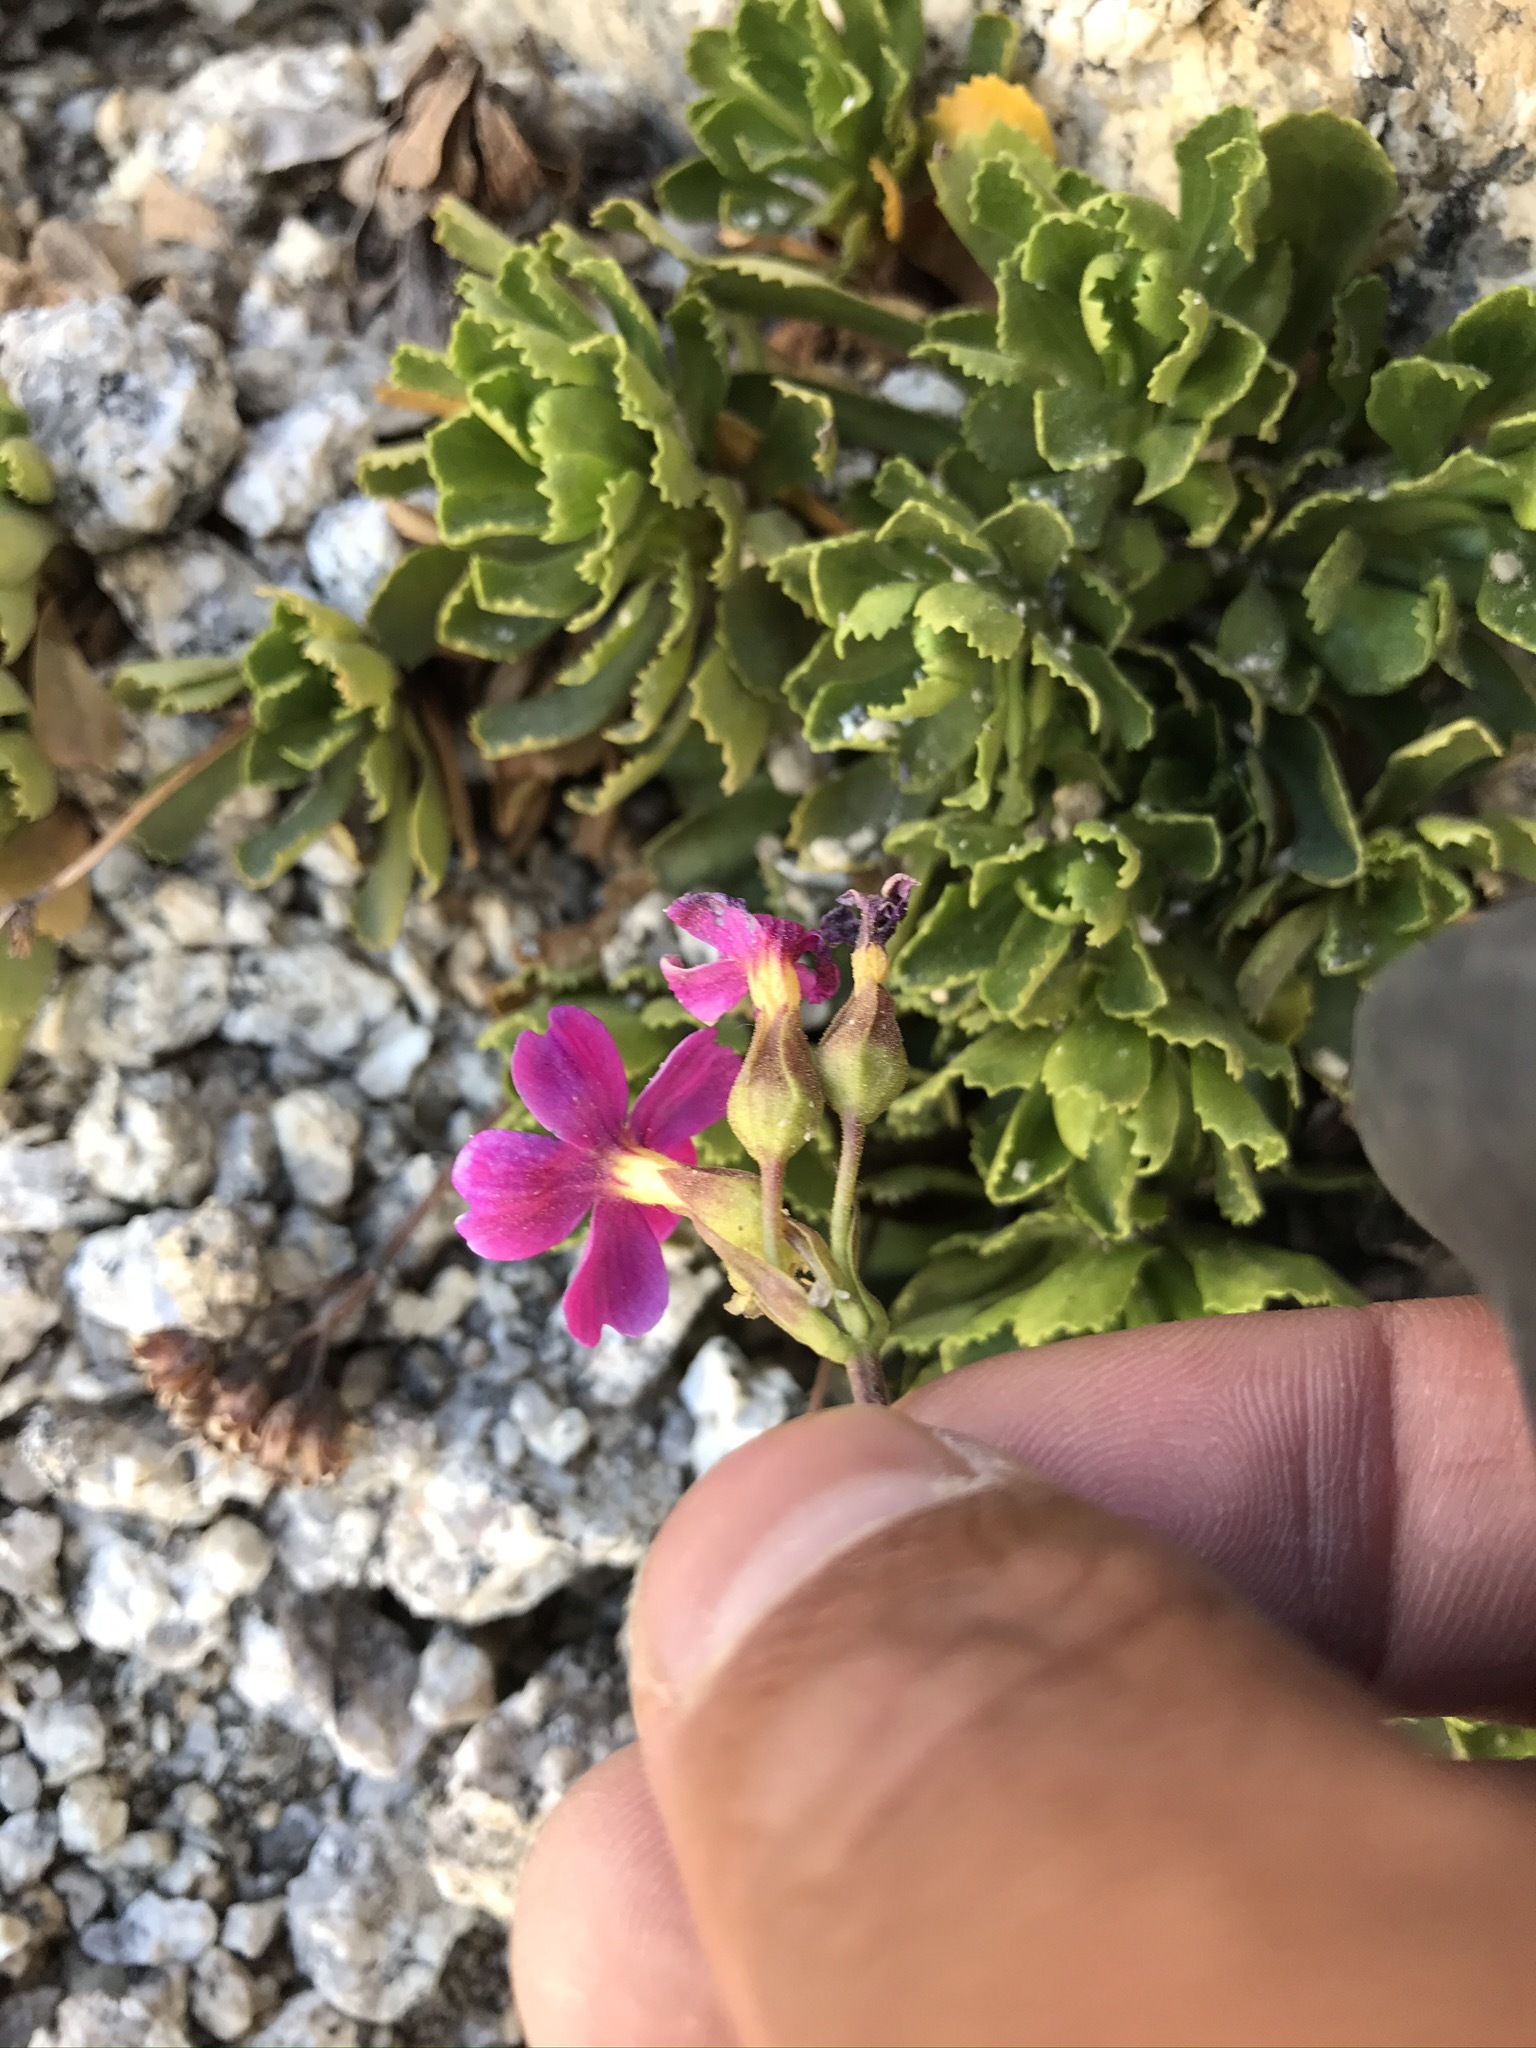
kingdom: Plantae
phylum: Tracheophyta
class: Magnoliopsida
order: Ericales
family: Primulaceae
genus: Primula
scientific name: Primula suffrutescens
